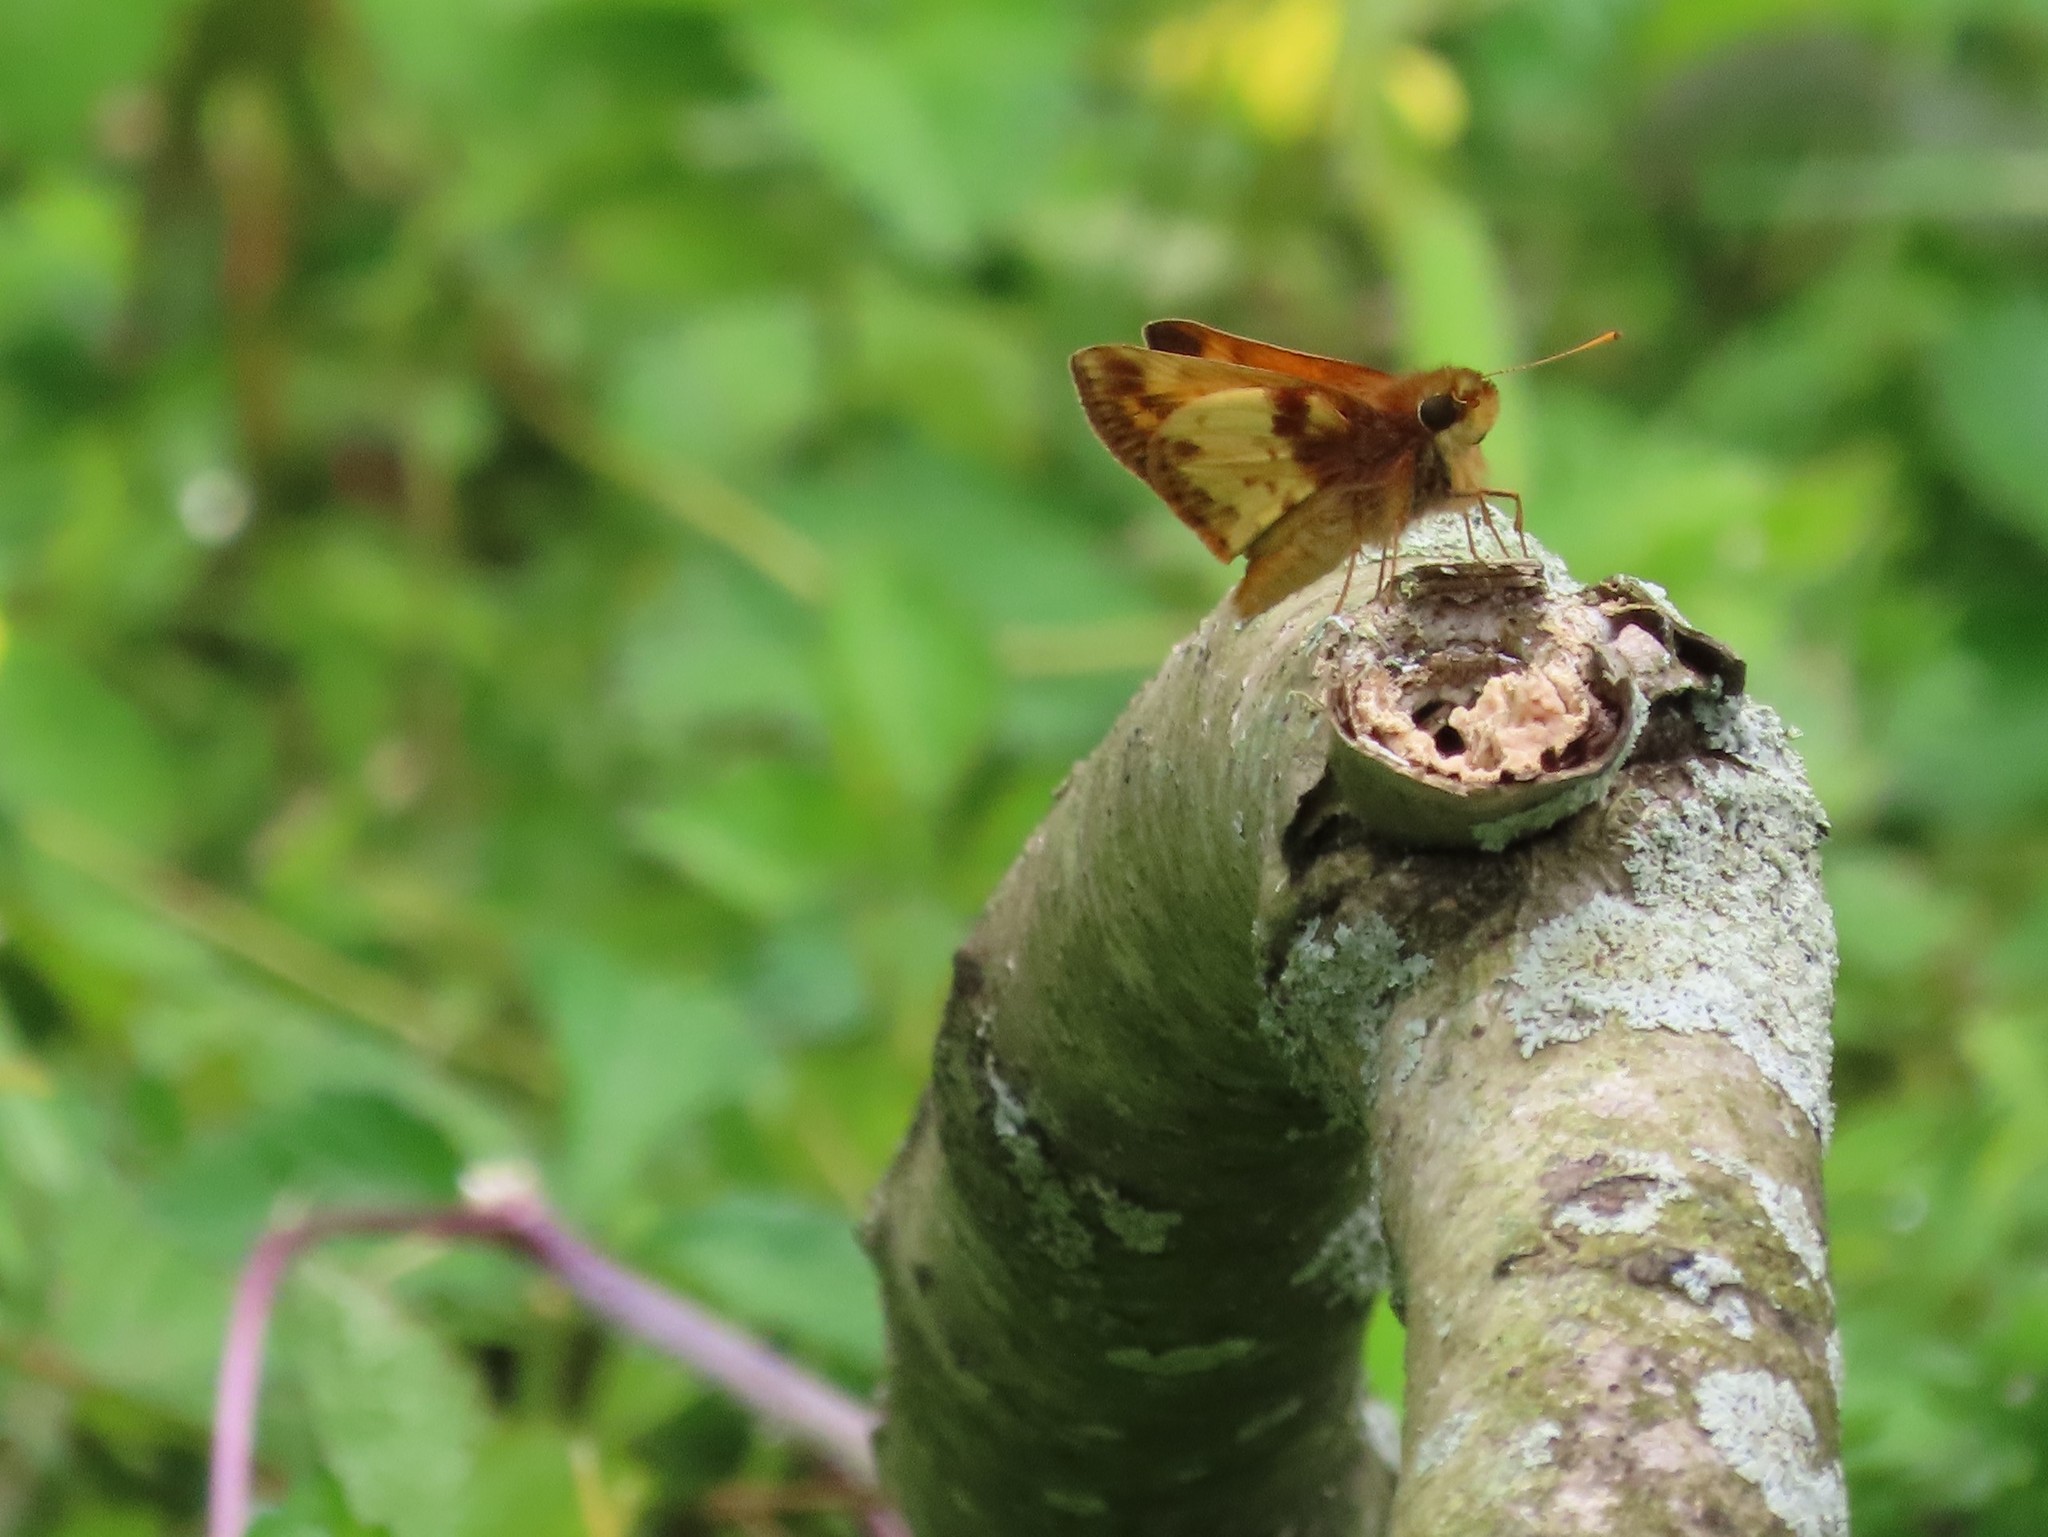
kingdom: Animalia
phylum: Arthropoda
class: Insecta
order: Lepidoptera
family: Hesperiidae
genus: Lon
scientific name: Lon zabulon
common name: Zabulon skipper
